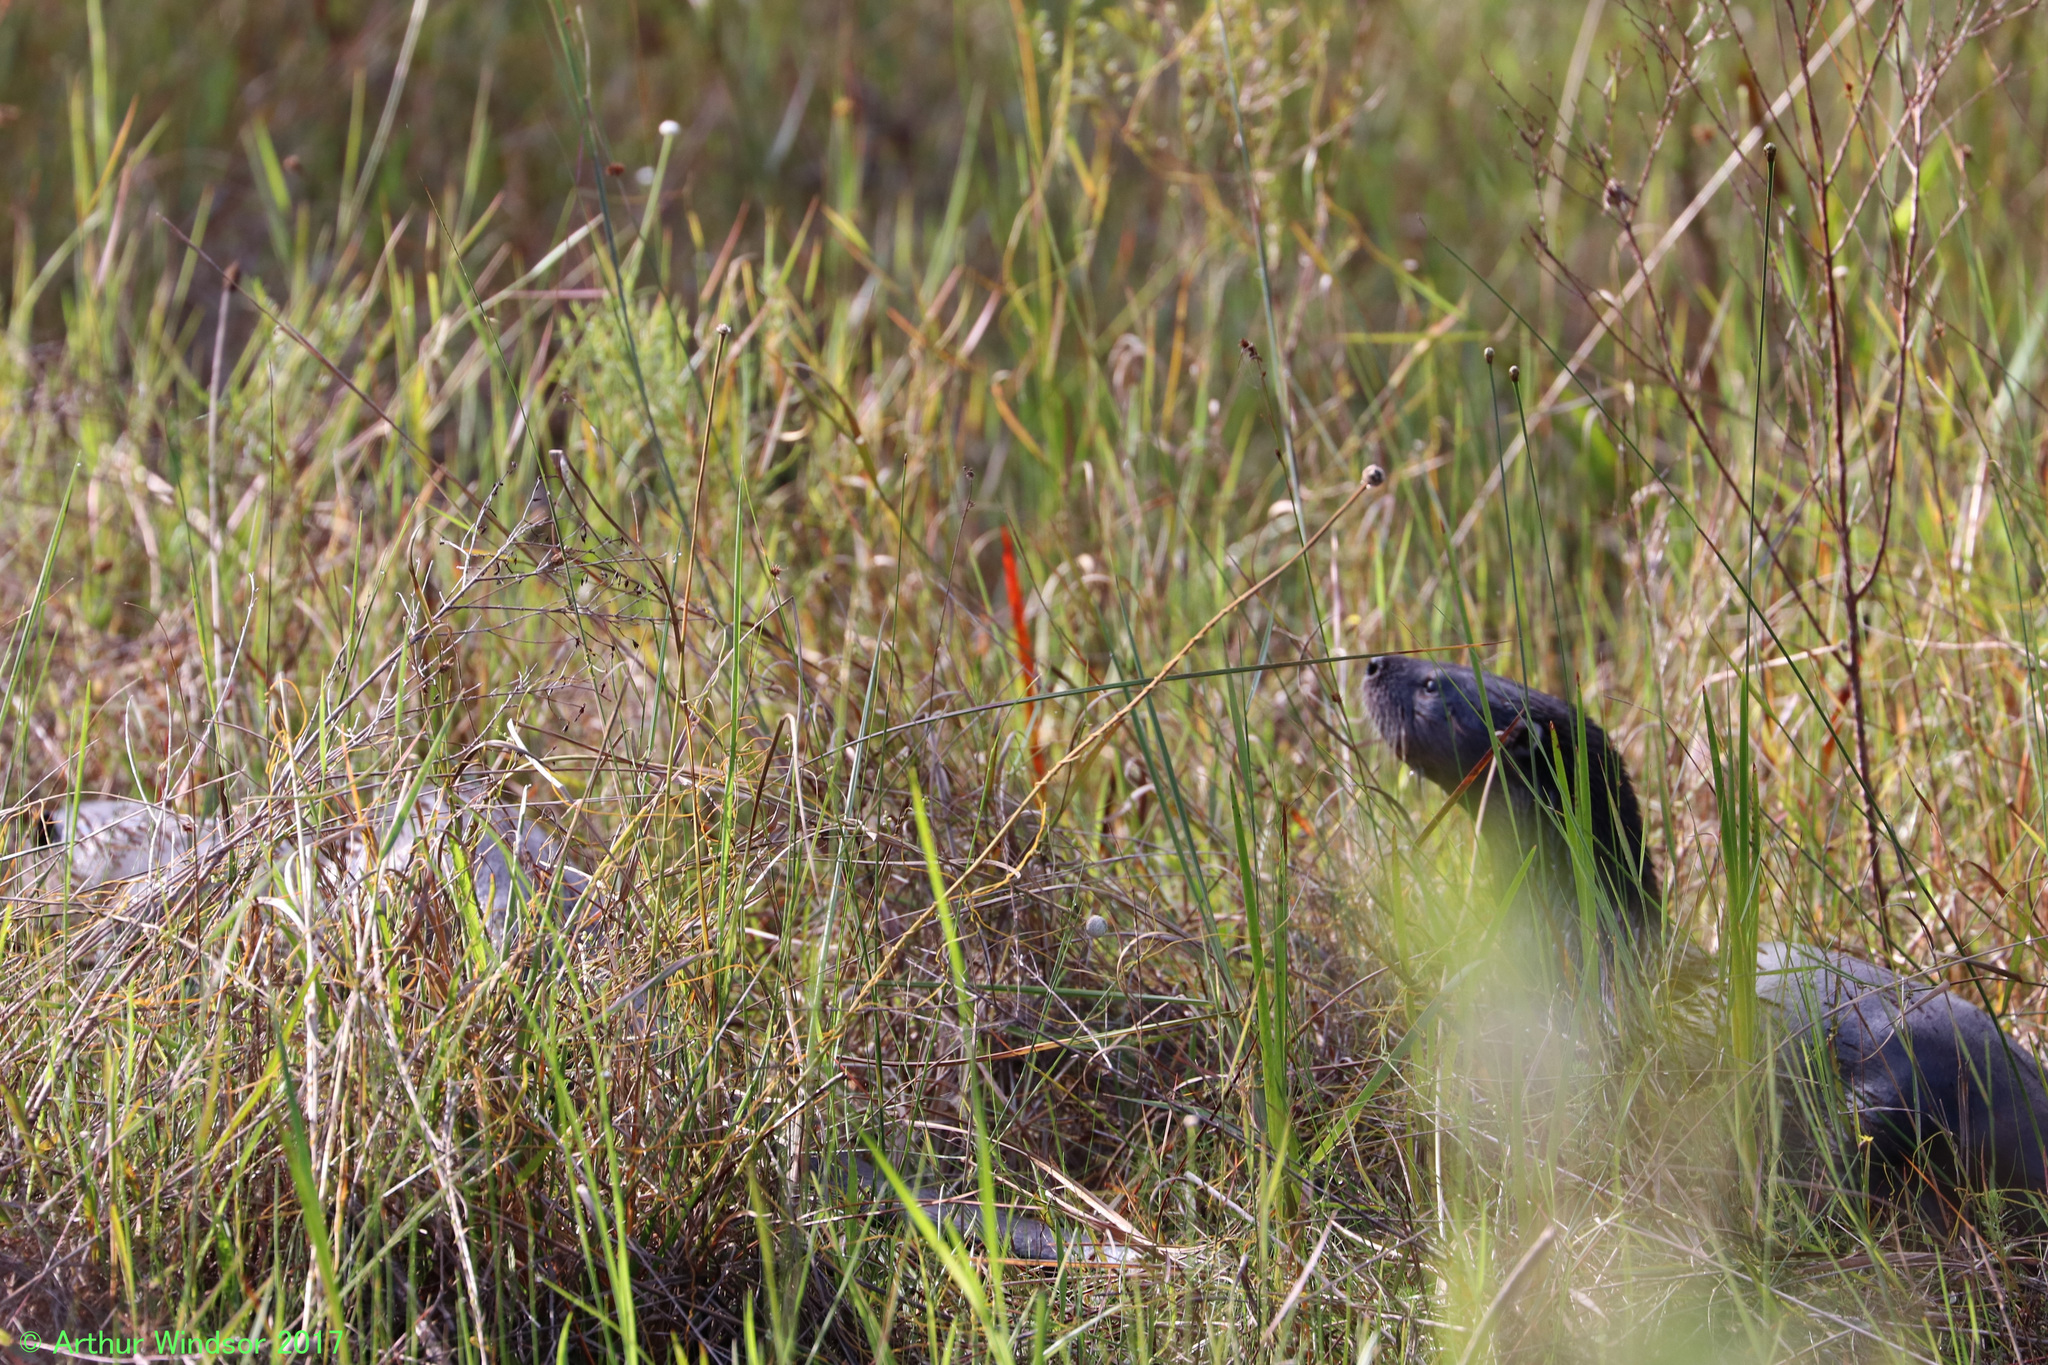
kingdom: Animalia
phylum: Chordata
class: Mammalia
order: Carnivora
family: Mustelidae
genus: Lontra
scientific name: Lontra canadensis
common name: North american river otter
